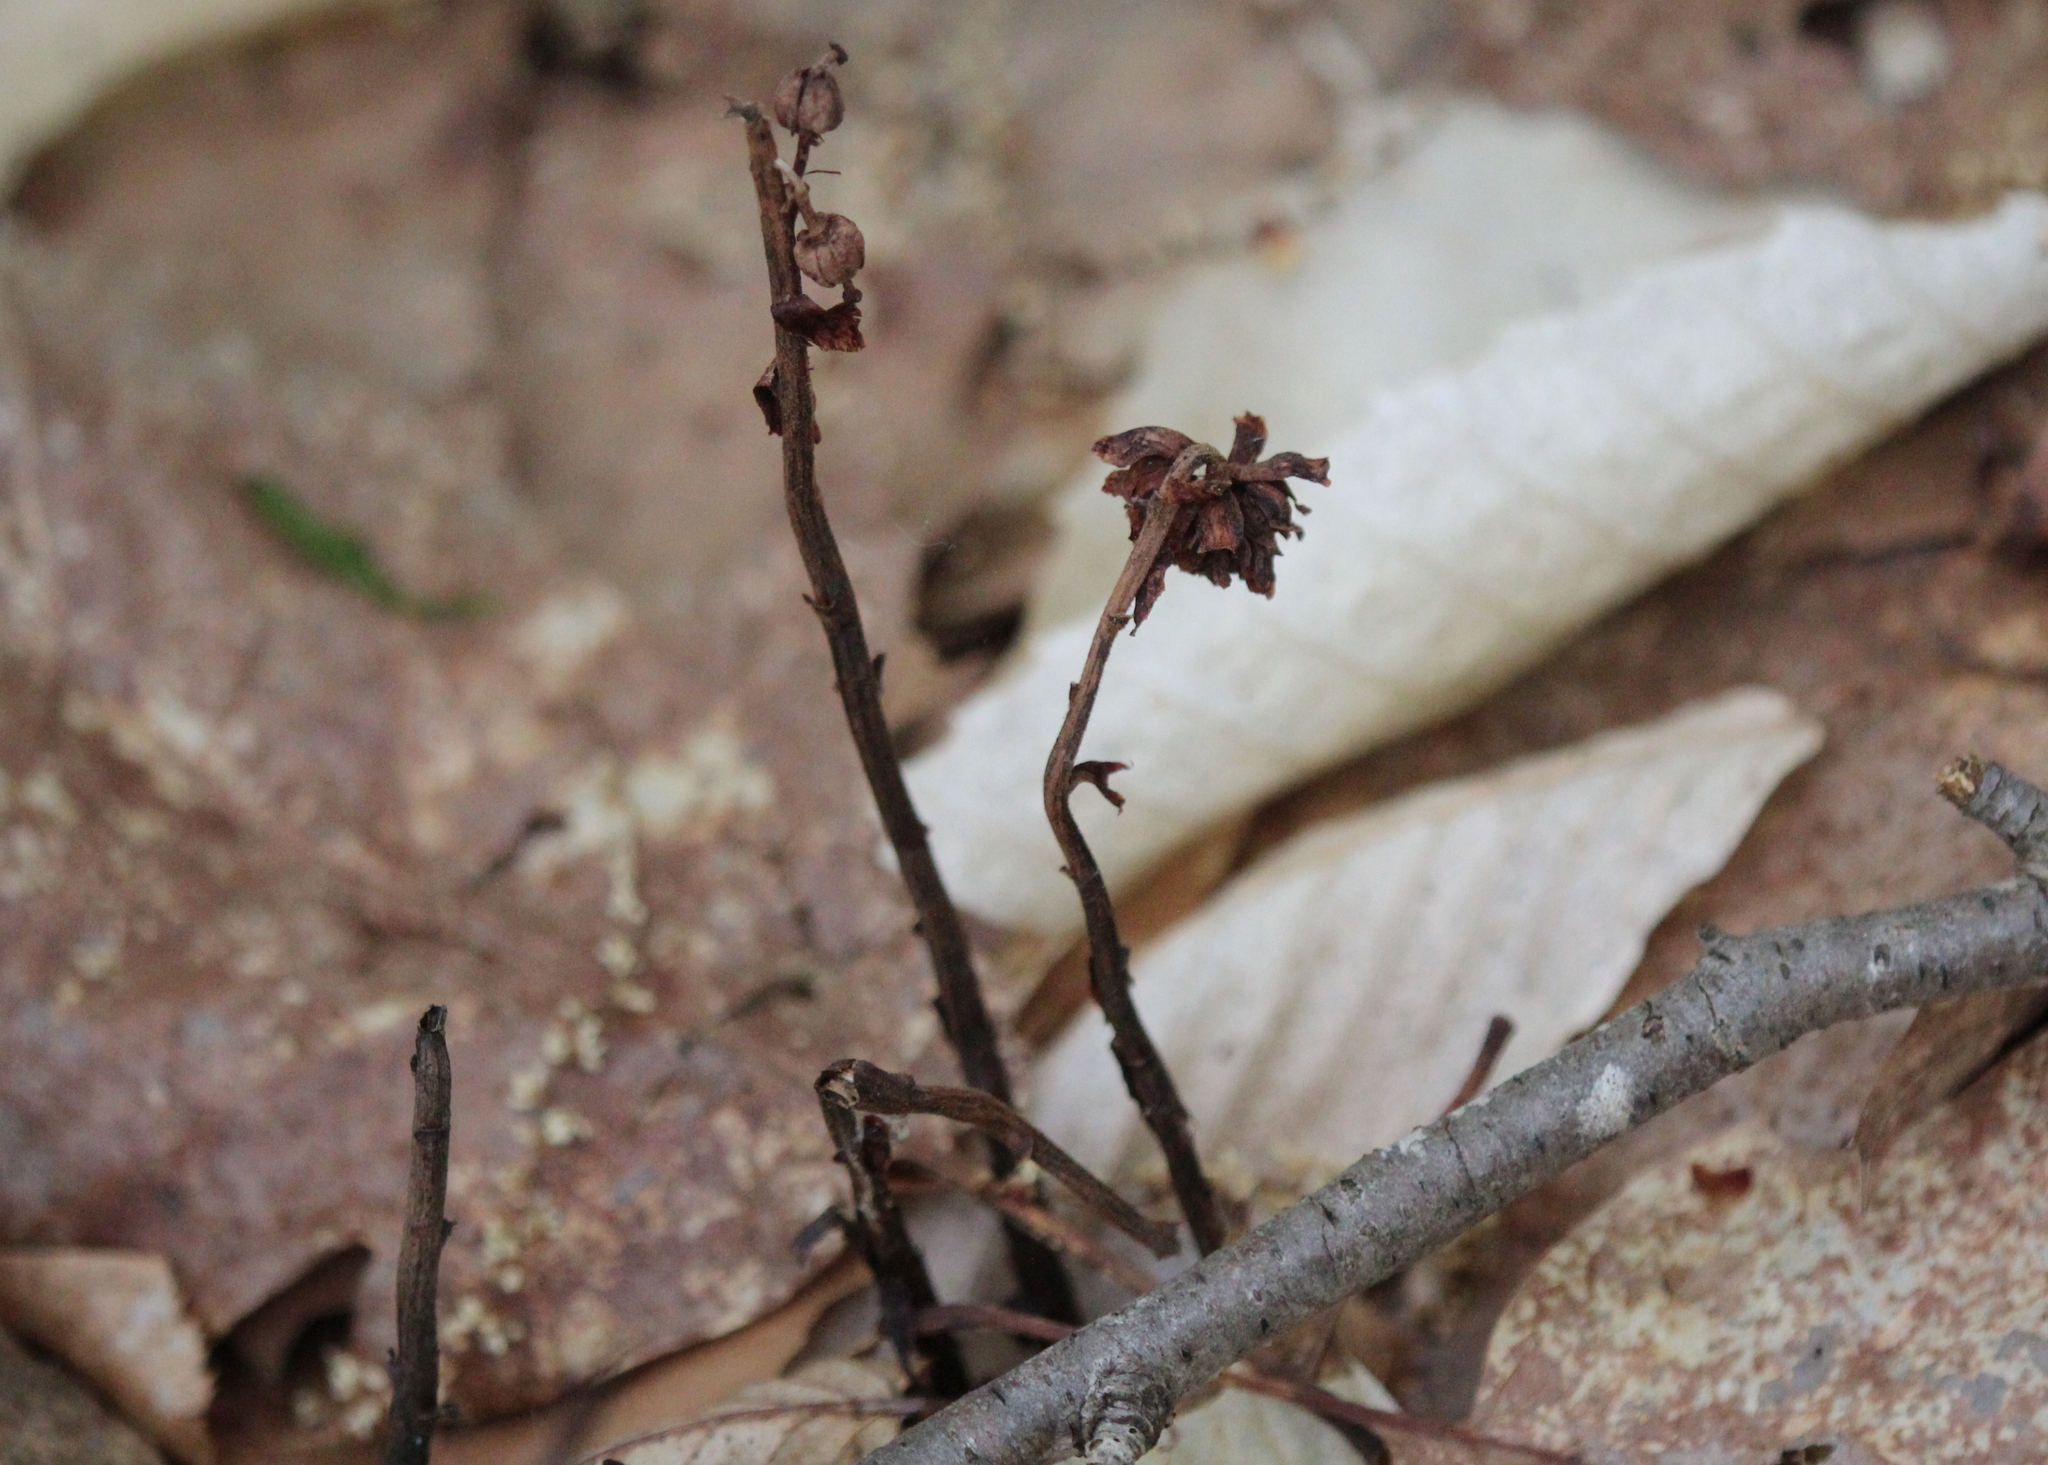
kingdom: Plantae
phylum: Tracheophyta
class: Magnoliopsida
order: Ericales
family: Ericaceae
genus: Monotropa
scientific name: Monotropa uniflora
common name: Convulsion root
